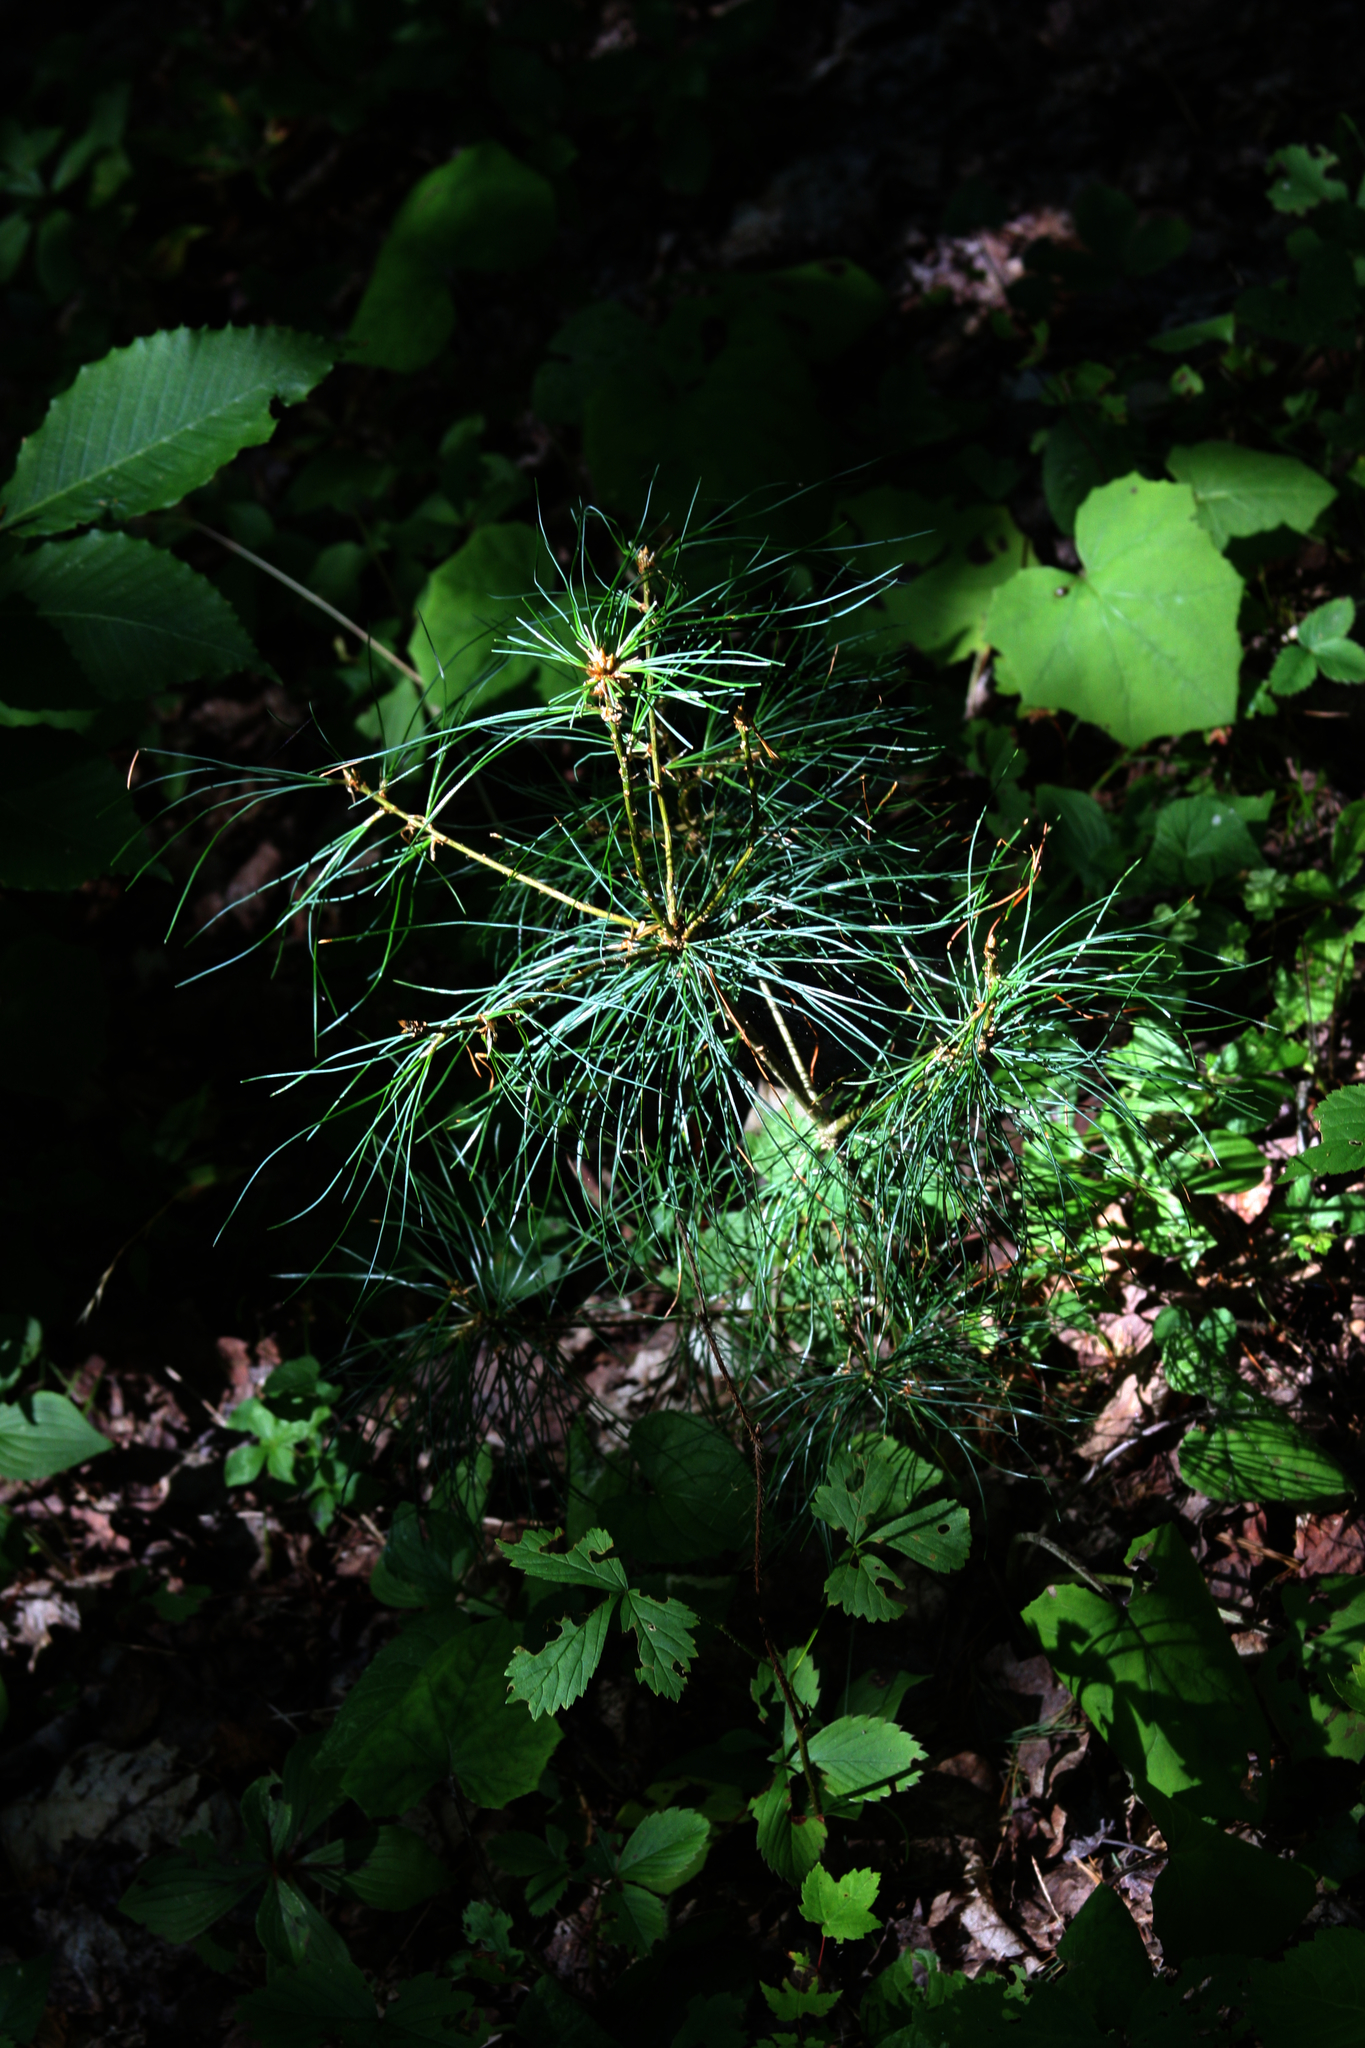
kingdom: Plantae
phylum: Tracheophyta
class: Pinopsida
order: Pinales
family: Pinaceae
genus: Pinus
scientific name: Pinus strobus
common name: Weymouth pine
